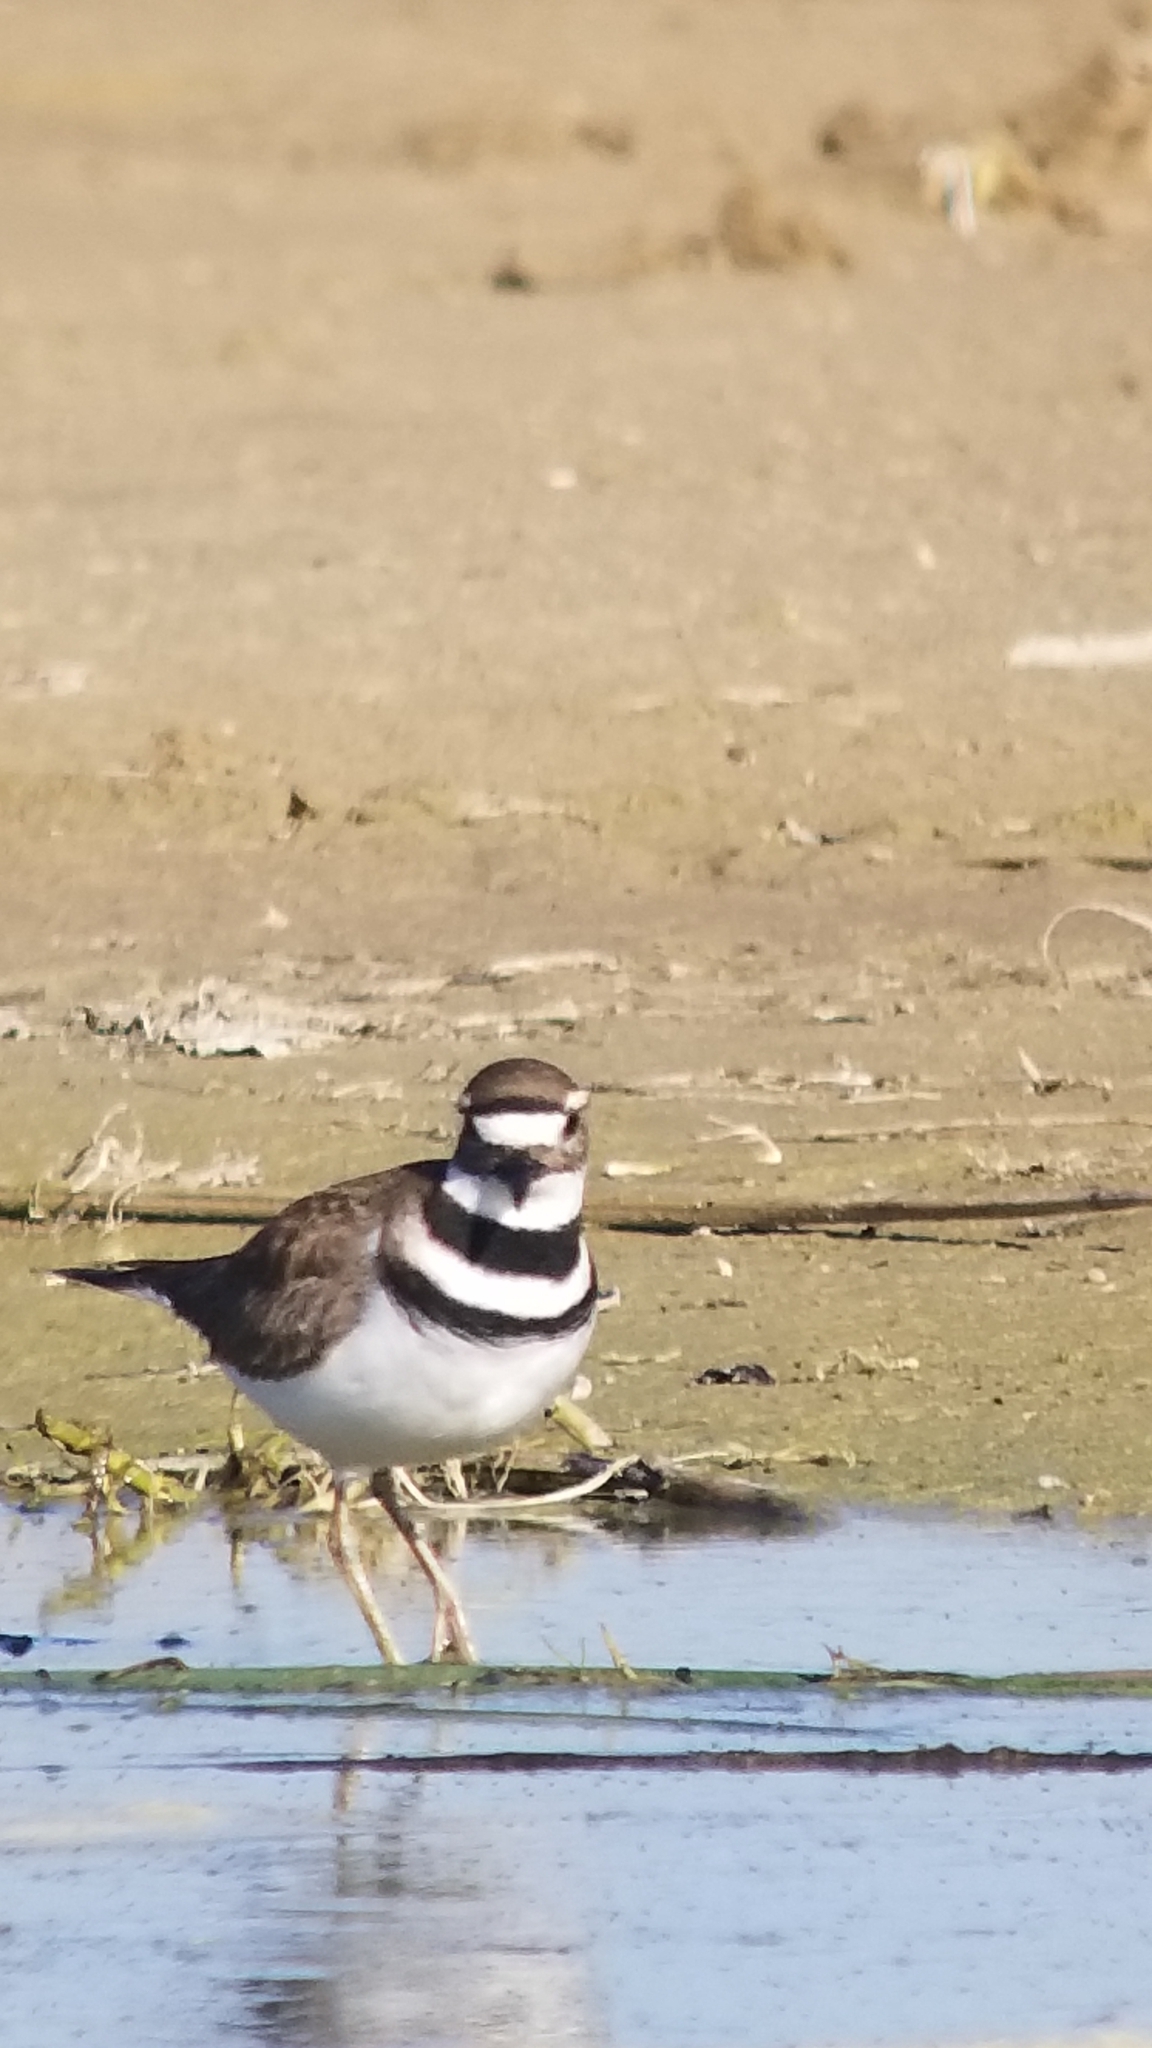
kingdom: Animalia
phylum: Chordata
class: Aves
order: Charadriiformes
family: Charadriidae
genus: Charadrius
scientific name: Charadrius vociferus
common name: Killdeer
